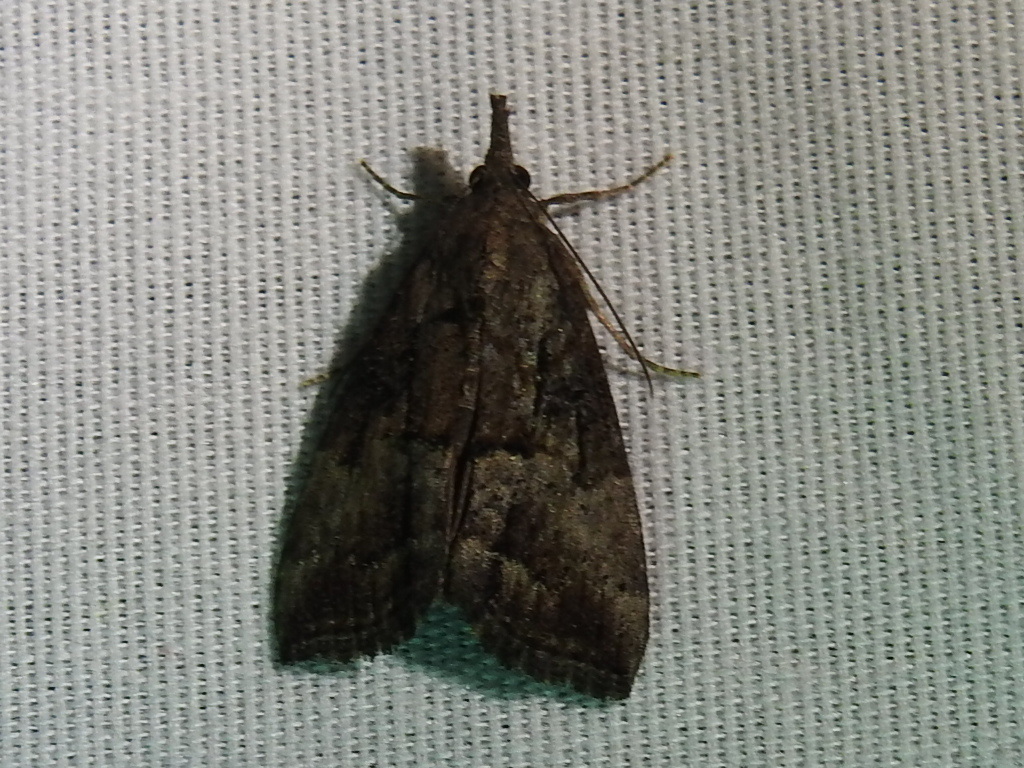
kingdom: Animalia
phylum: Arthropoda
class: Insecta
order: Lepidoptera
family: Erebidae
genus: Hypena
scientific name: Hypena scabra
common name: Green cloverworm
